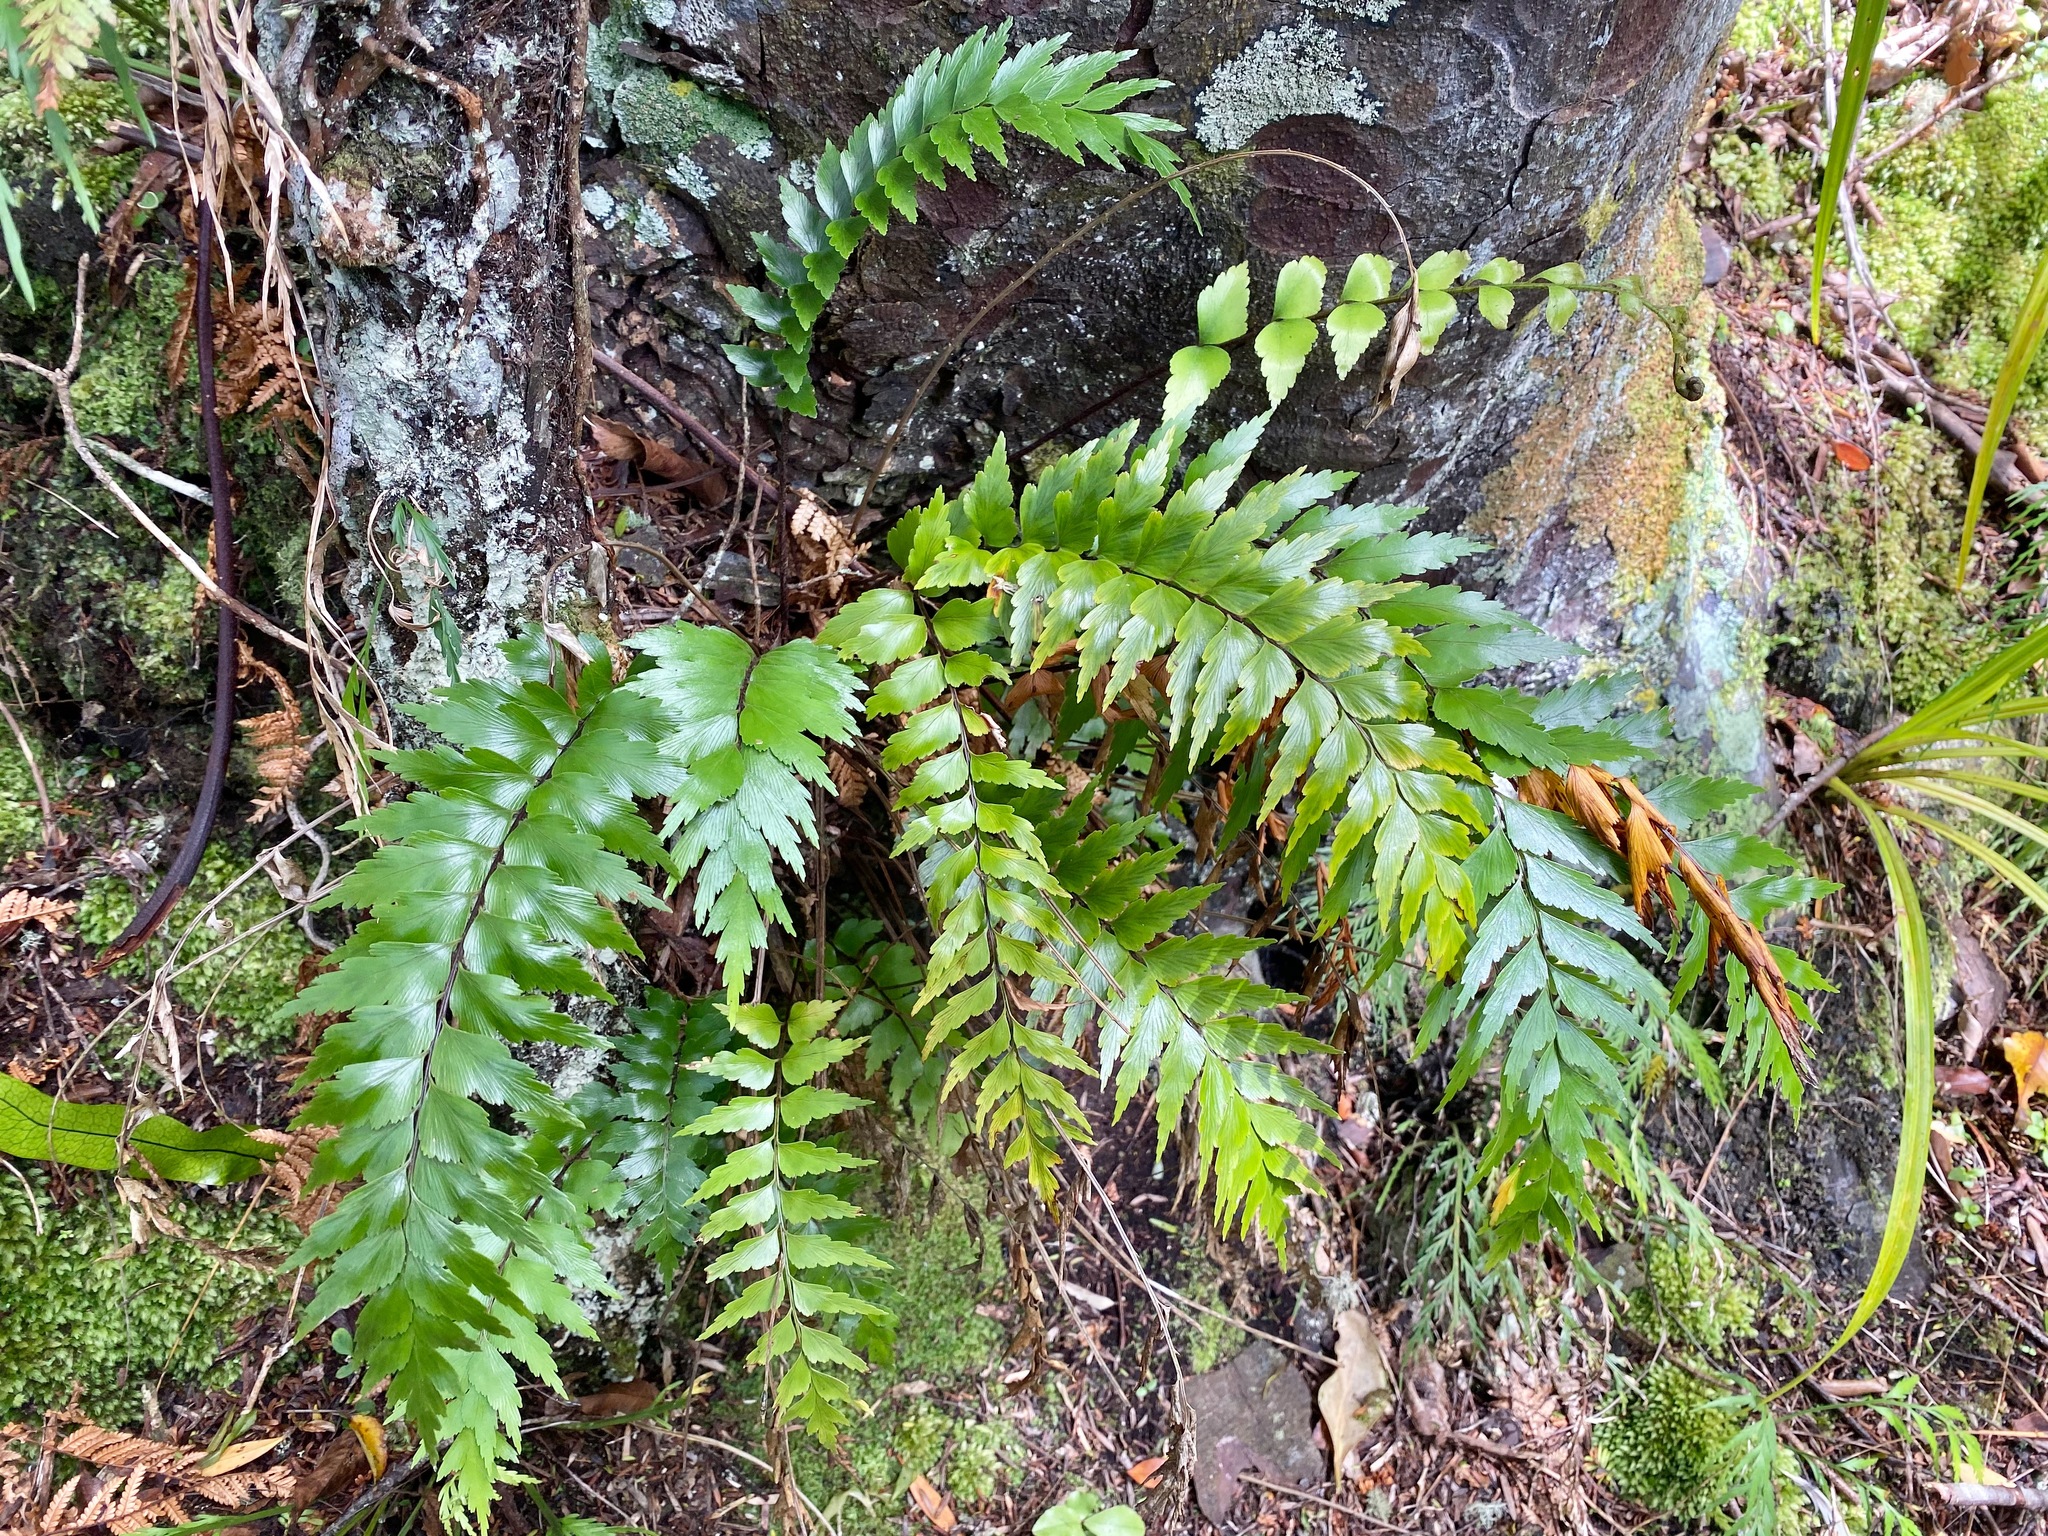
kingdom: Plantae
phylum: Tracheophyta
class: Polypodiopsida
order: Polypodiales
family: Aspleniaceae
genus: Asplenium
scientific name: Asplenium polyodon
